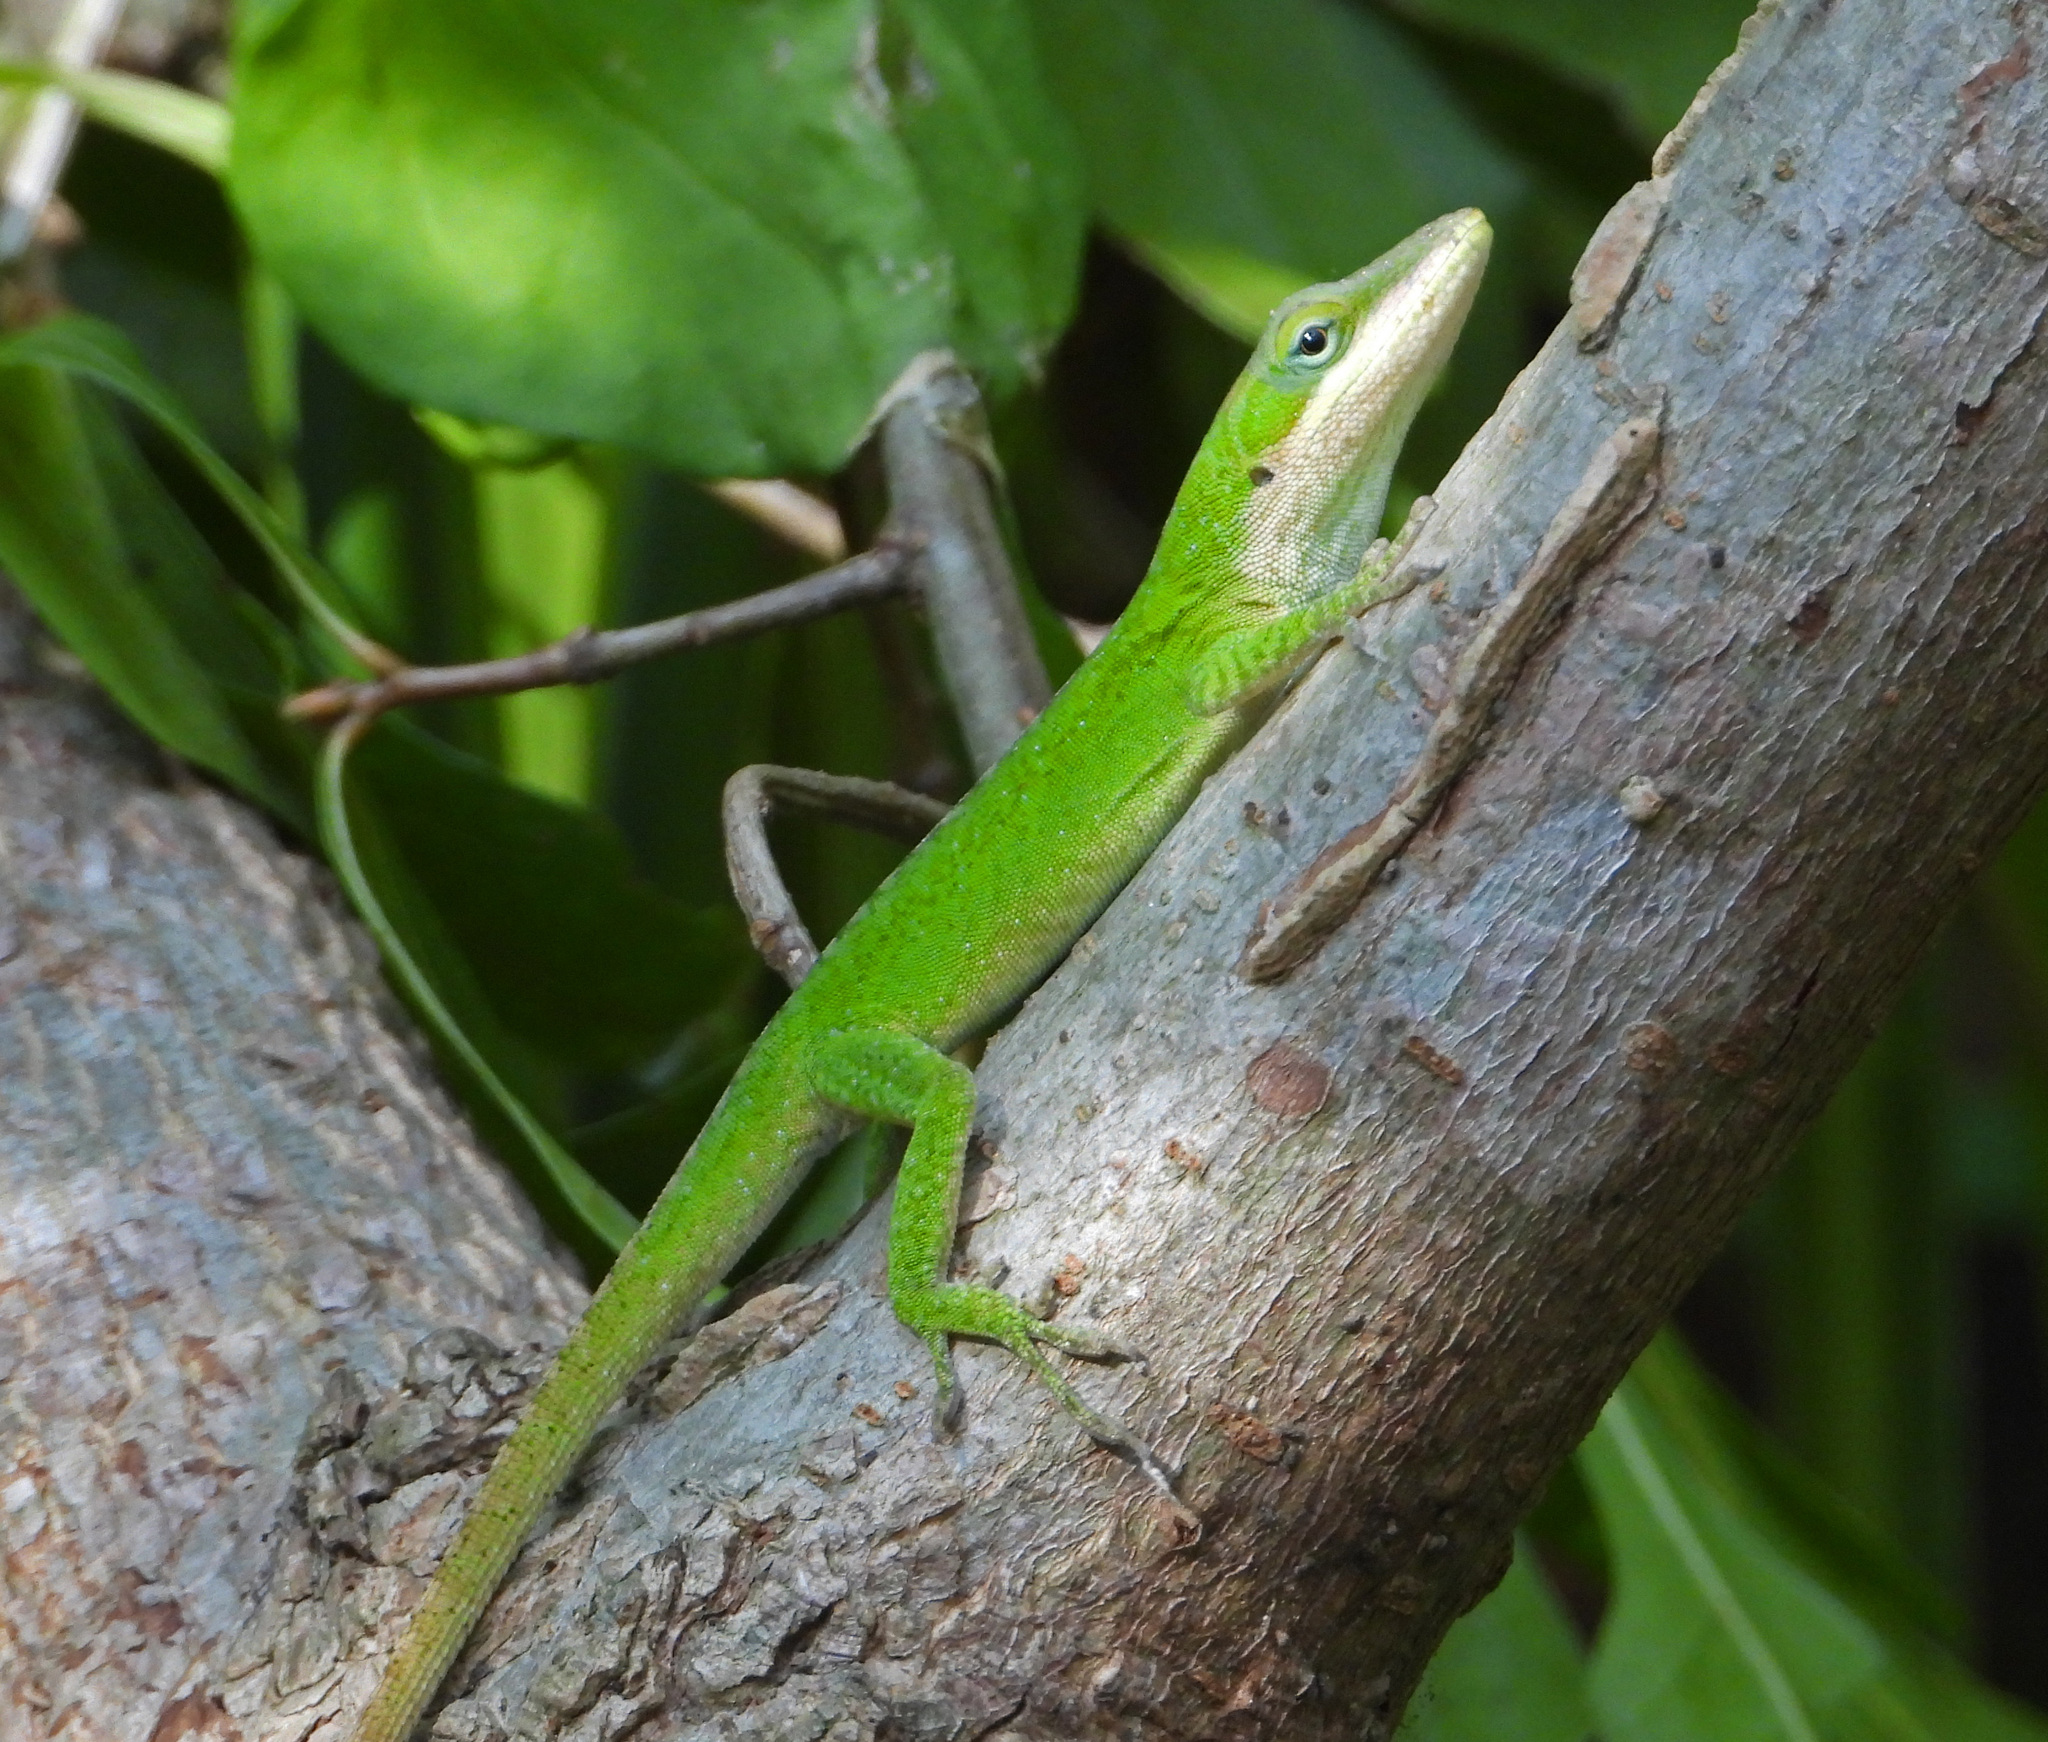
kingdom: Animalia
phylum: Chordata
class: Squamata
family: Dactyloidae
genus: Anolis
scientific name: Anolis carolinensis
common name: Green anole
